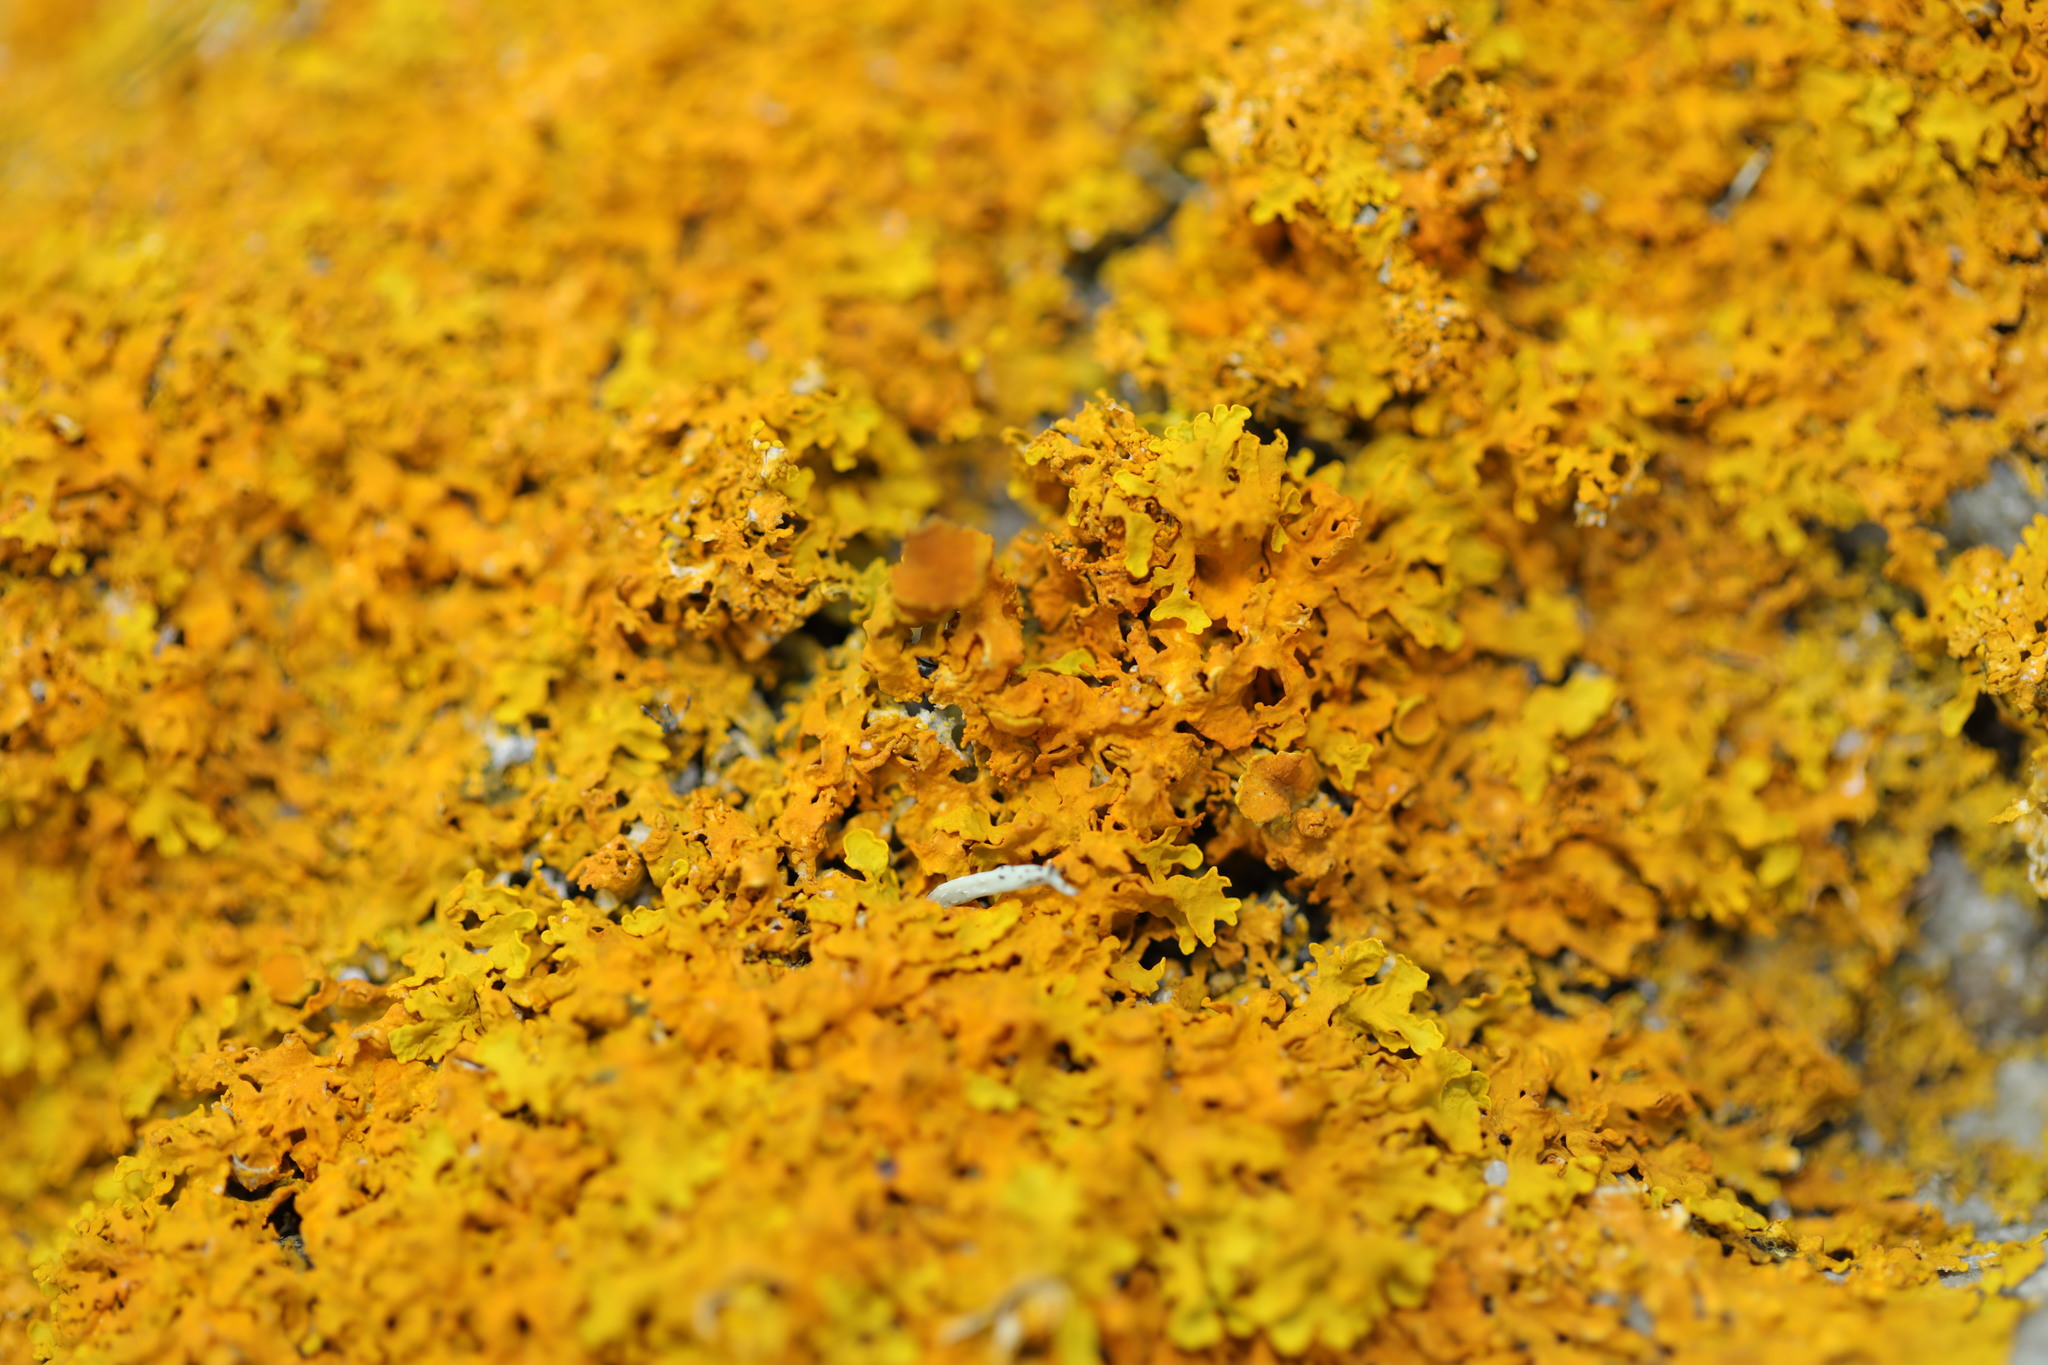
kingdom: Fungi
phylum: Ascomycota
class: Lecanoromycetes
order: Teloschistales
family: Teloschistaceae
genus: Xanthoria
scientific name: Xanthoria aureola
